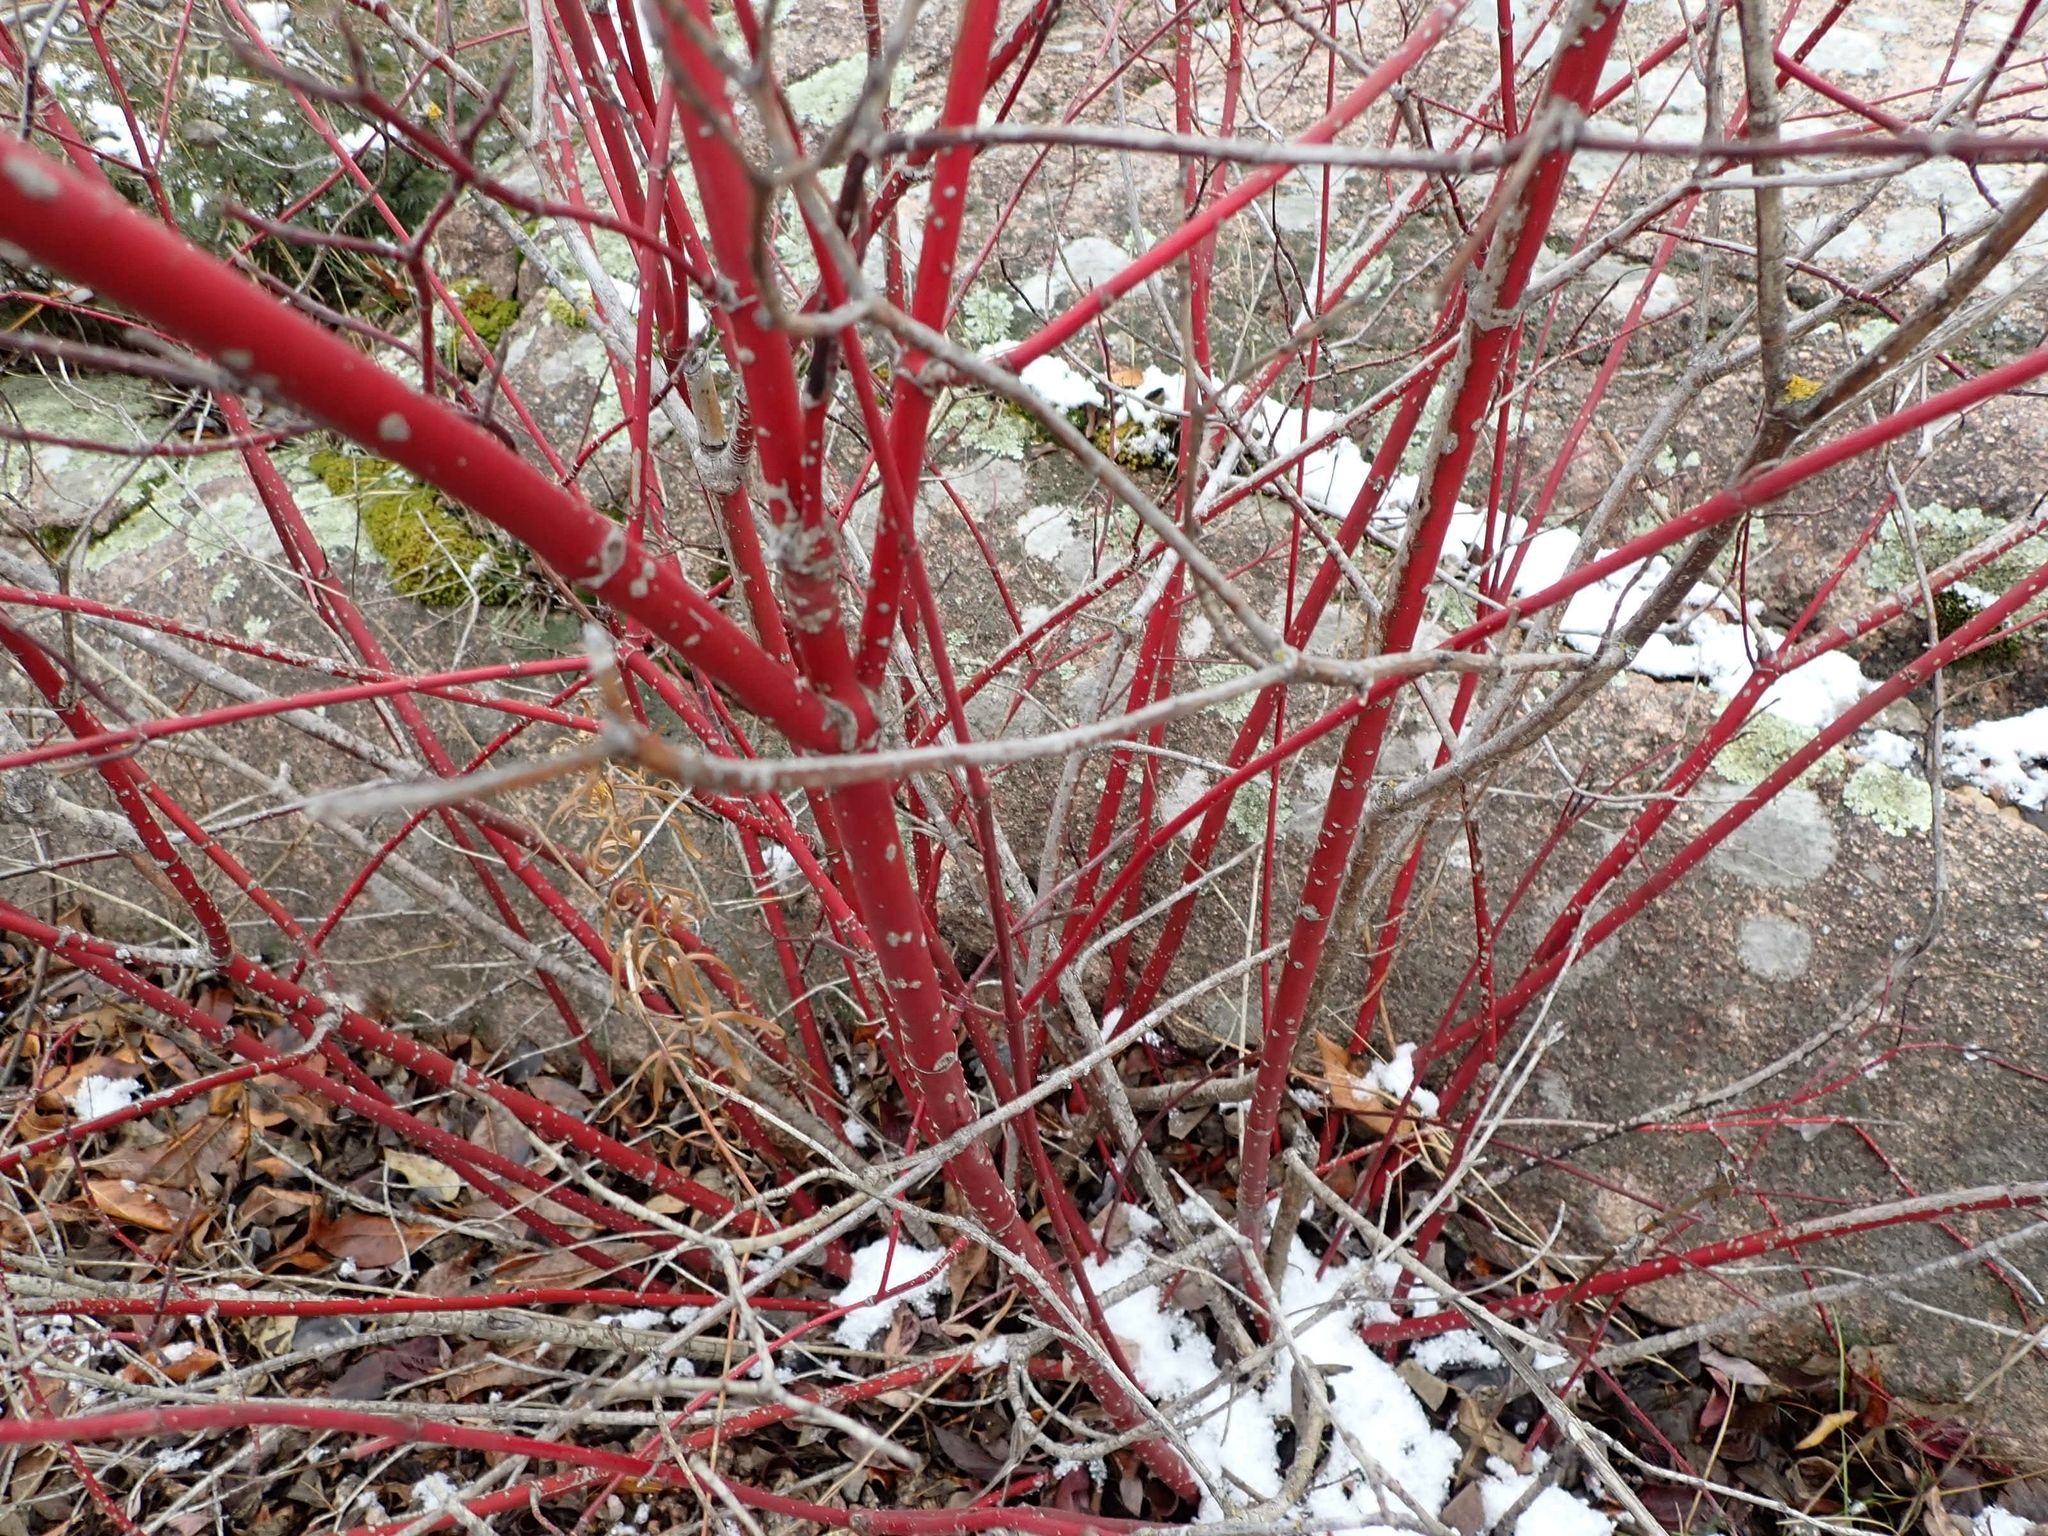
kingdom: Plantae
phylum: Tracheophyta
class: Magnoliopsida
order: Cornales
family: Cornaceae
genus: Cornus
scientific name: Cornus sericea
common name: Red-osier dogwood
